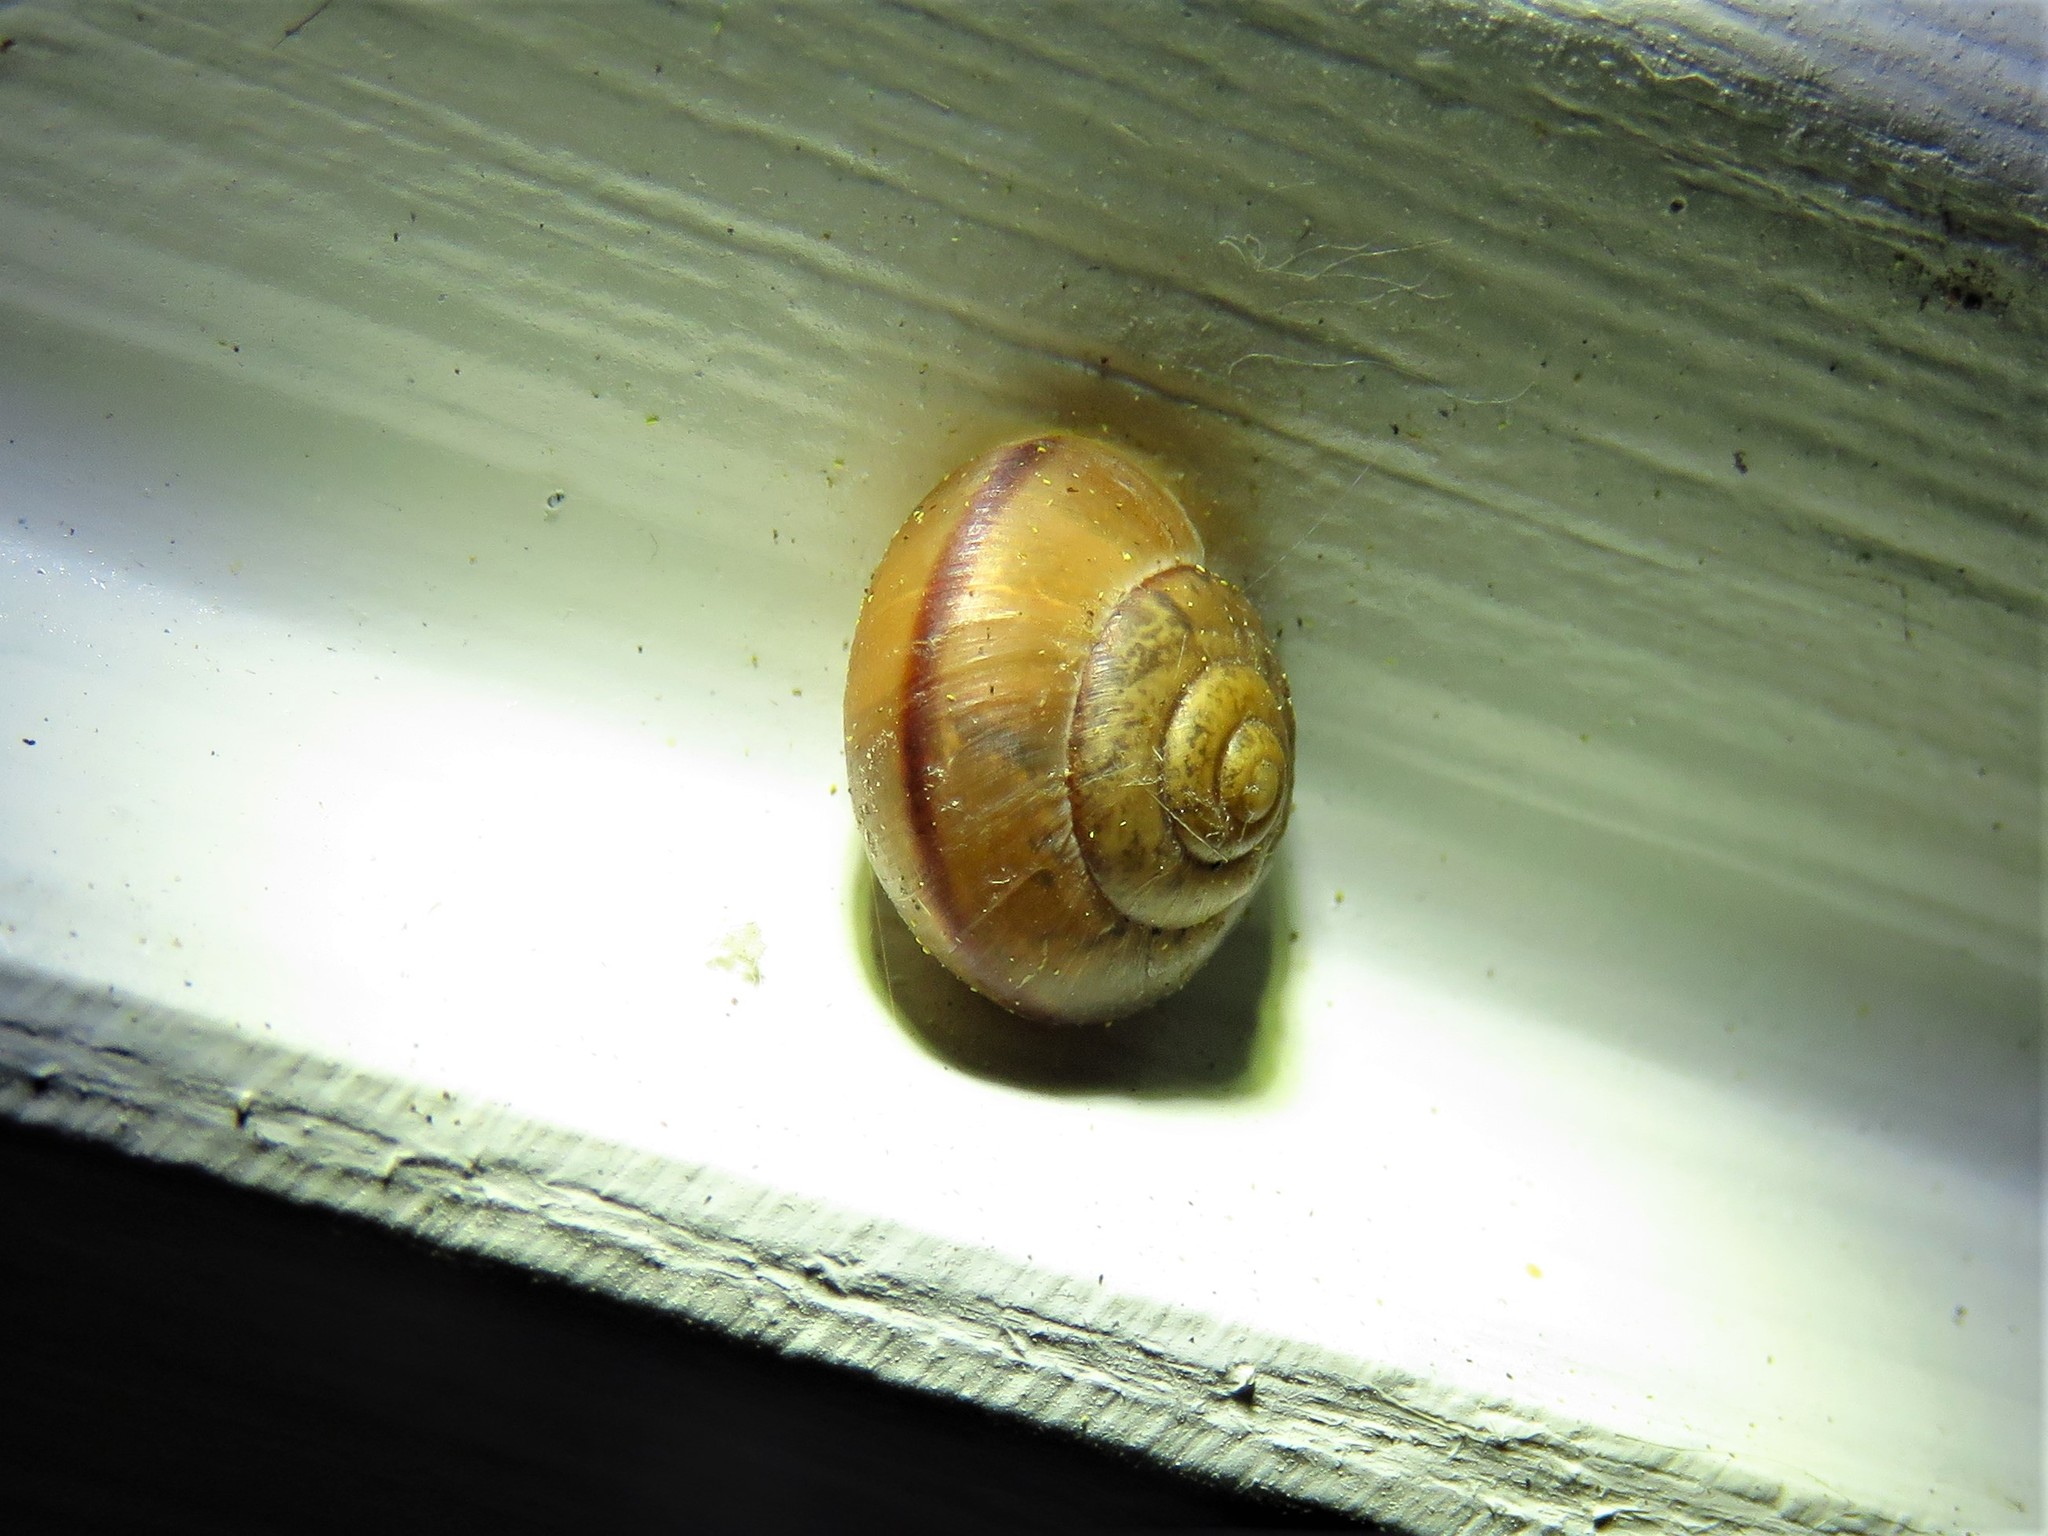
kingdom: Animalia
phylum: Mollusca
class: Gastropoda
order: Stylommatophora
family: Camaenidae
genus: Bradybaena
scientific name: Bradybaena similaris
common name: Asian trampsnail
